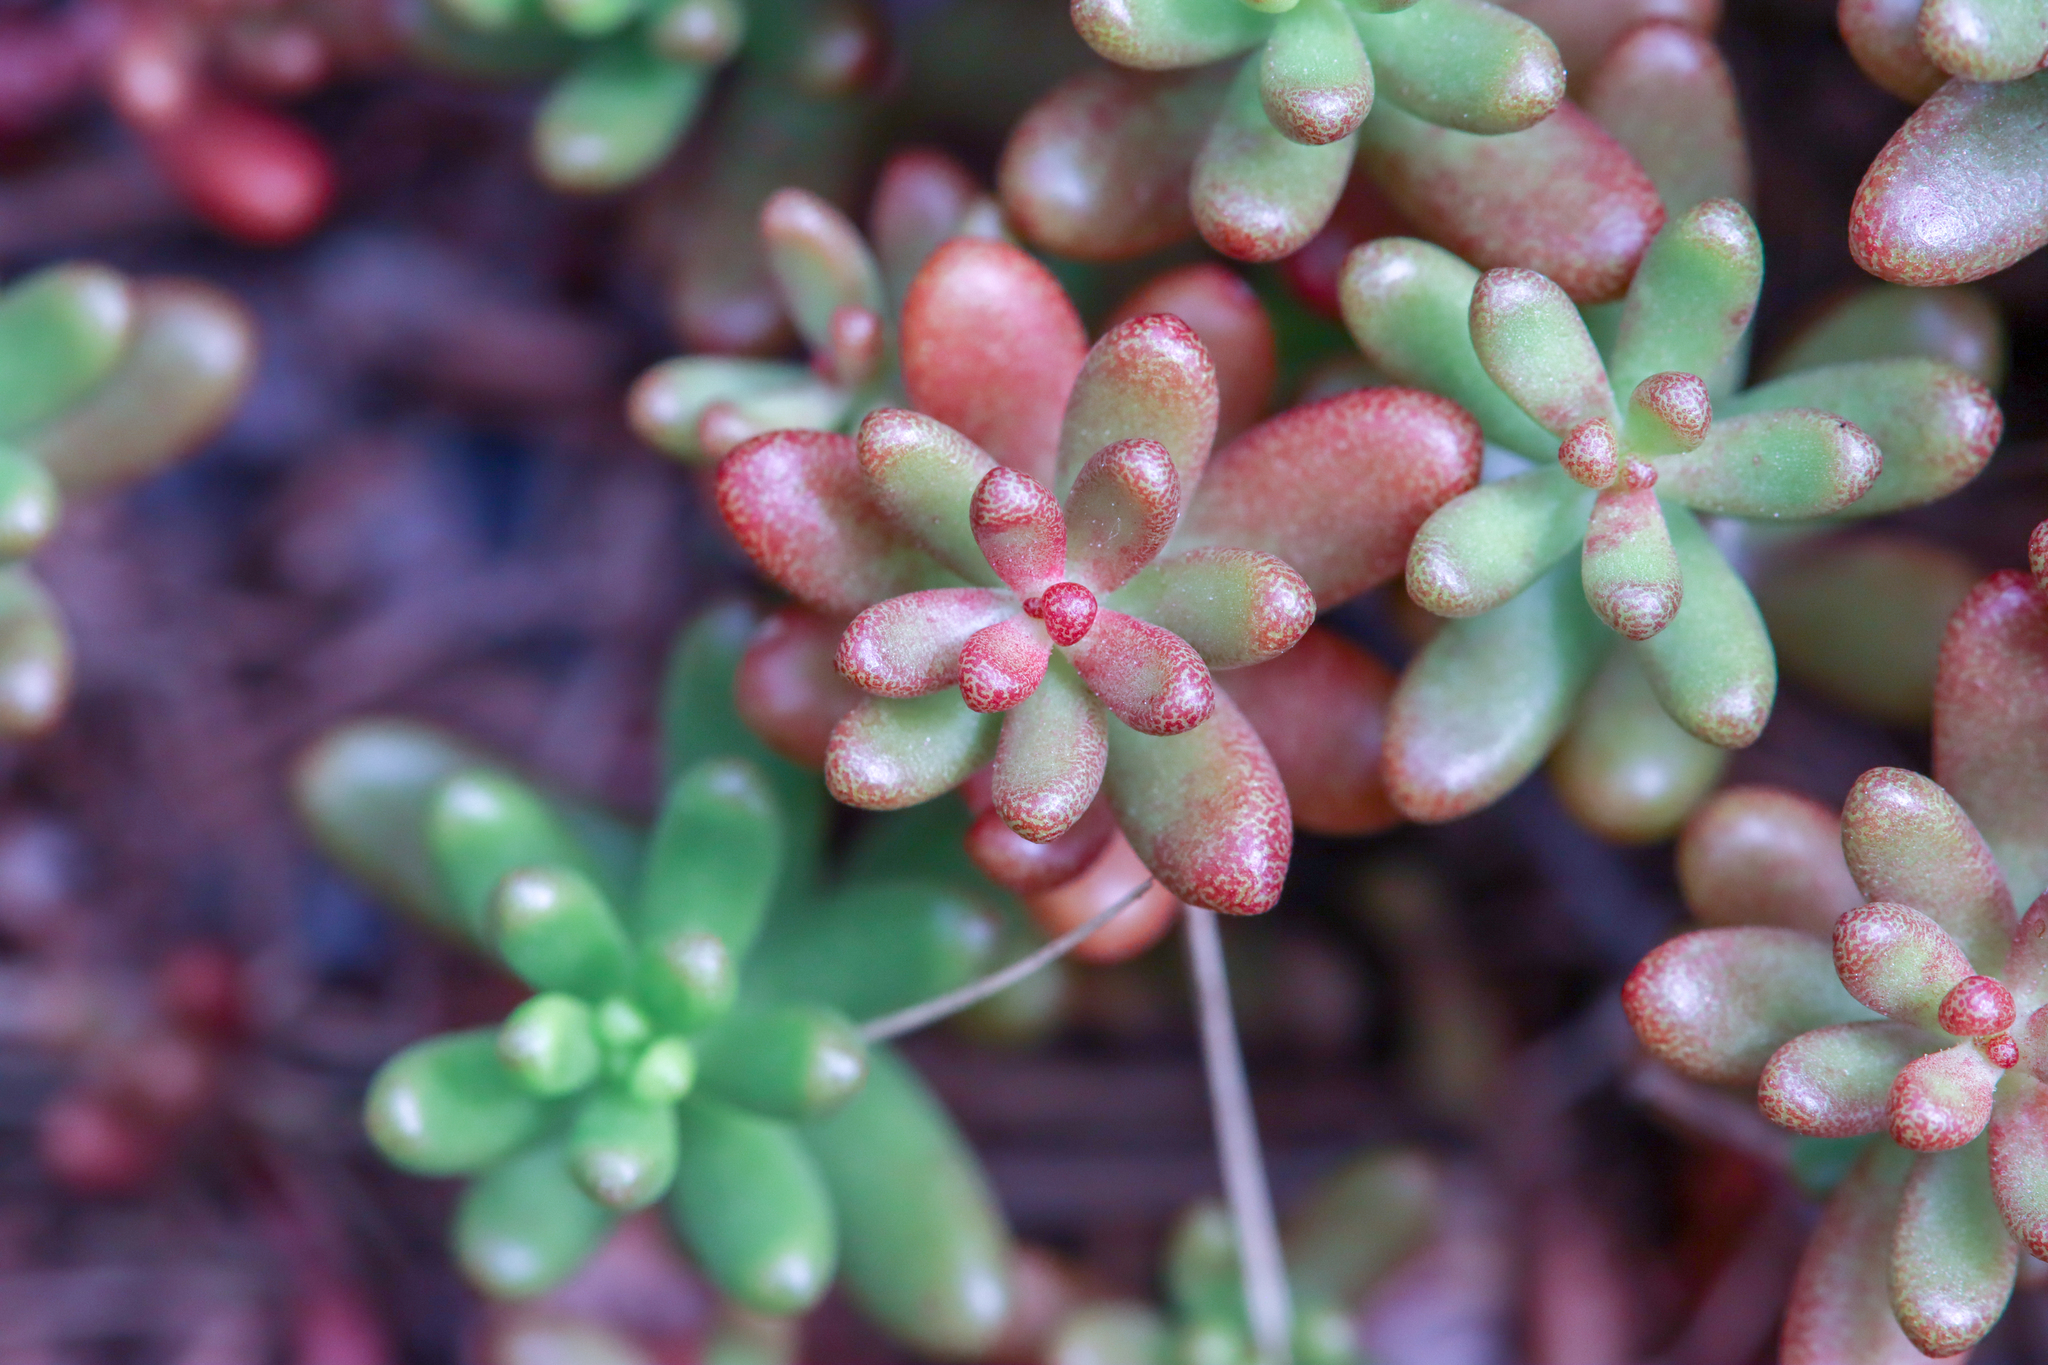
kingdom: Plantae
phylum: Tracheophyta
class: Magnoliopsida
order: Saxifragales
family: Crassulaceae
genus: Sedum
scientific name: Sedum album
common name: White stonecrop
